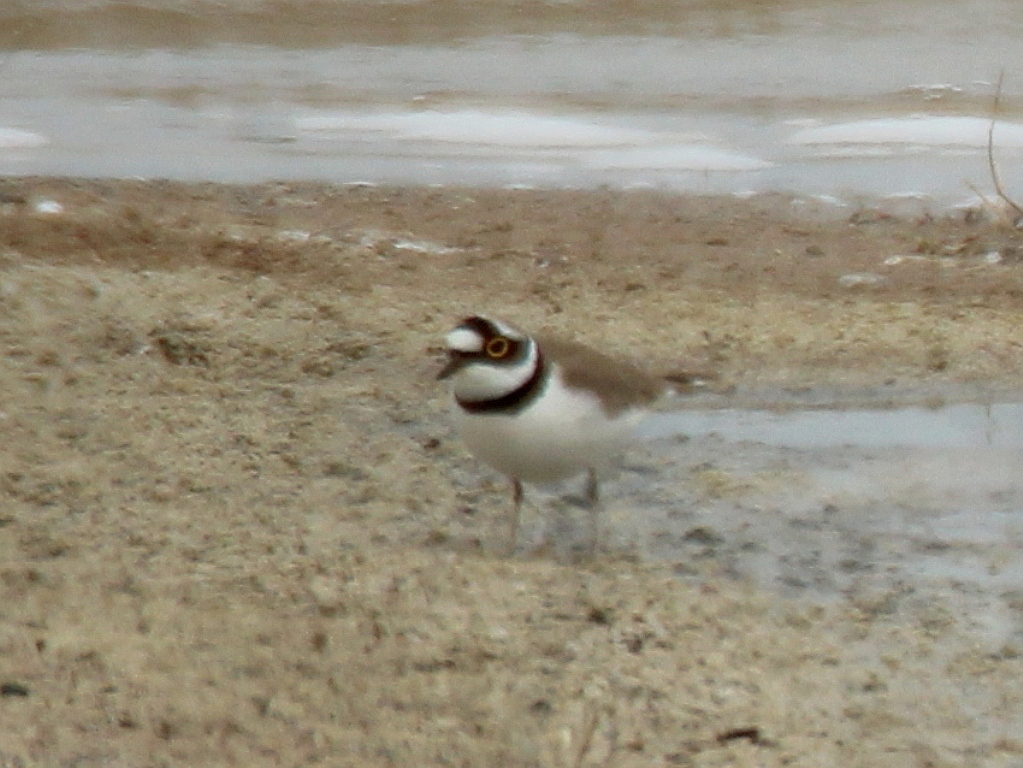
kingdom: Animalia
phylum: Chordata
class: Aves
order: Charadriiformes
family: Charadriidae
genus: Charadrius
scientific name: Charadrius dubius
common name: Little ringed plover
